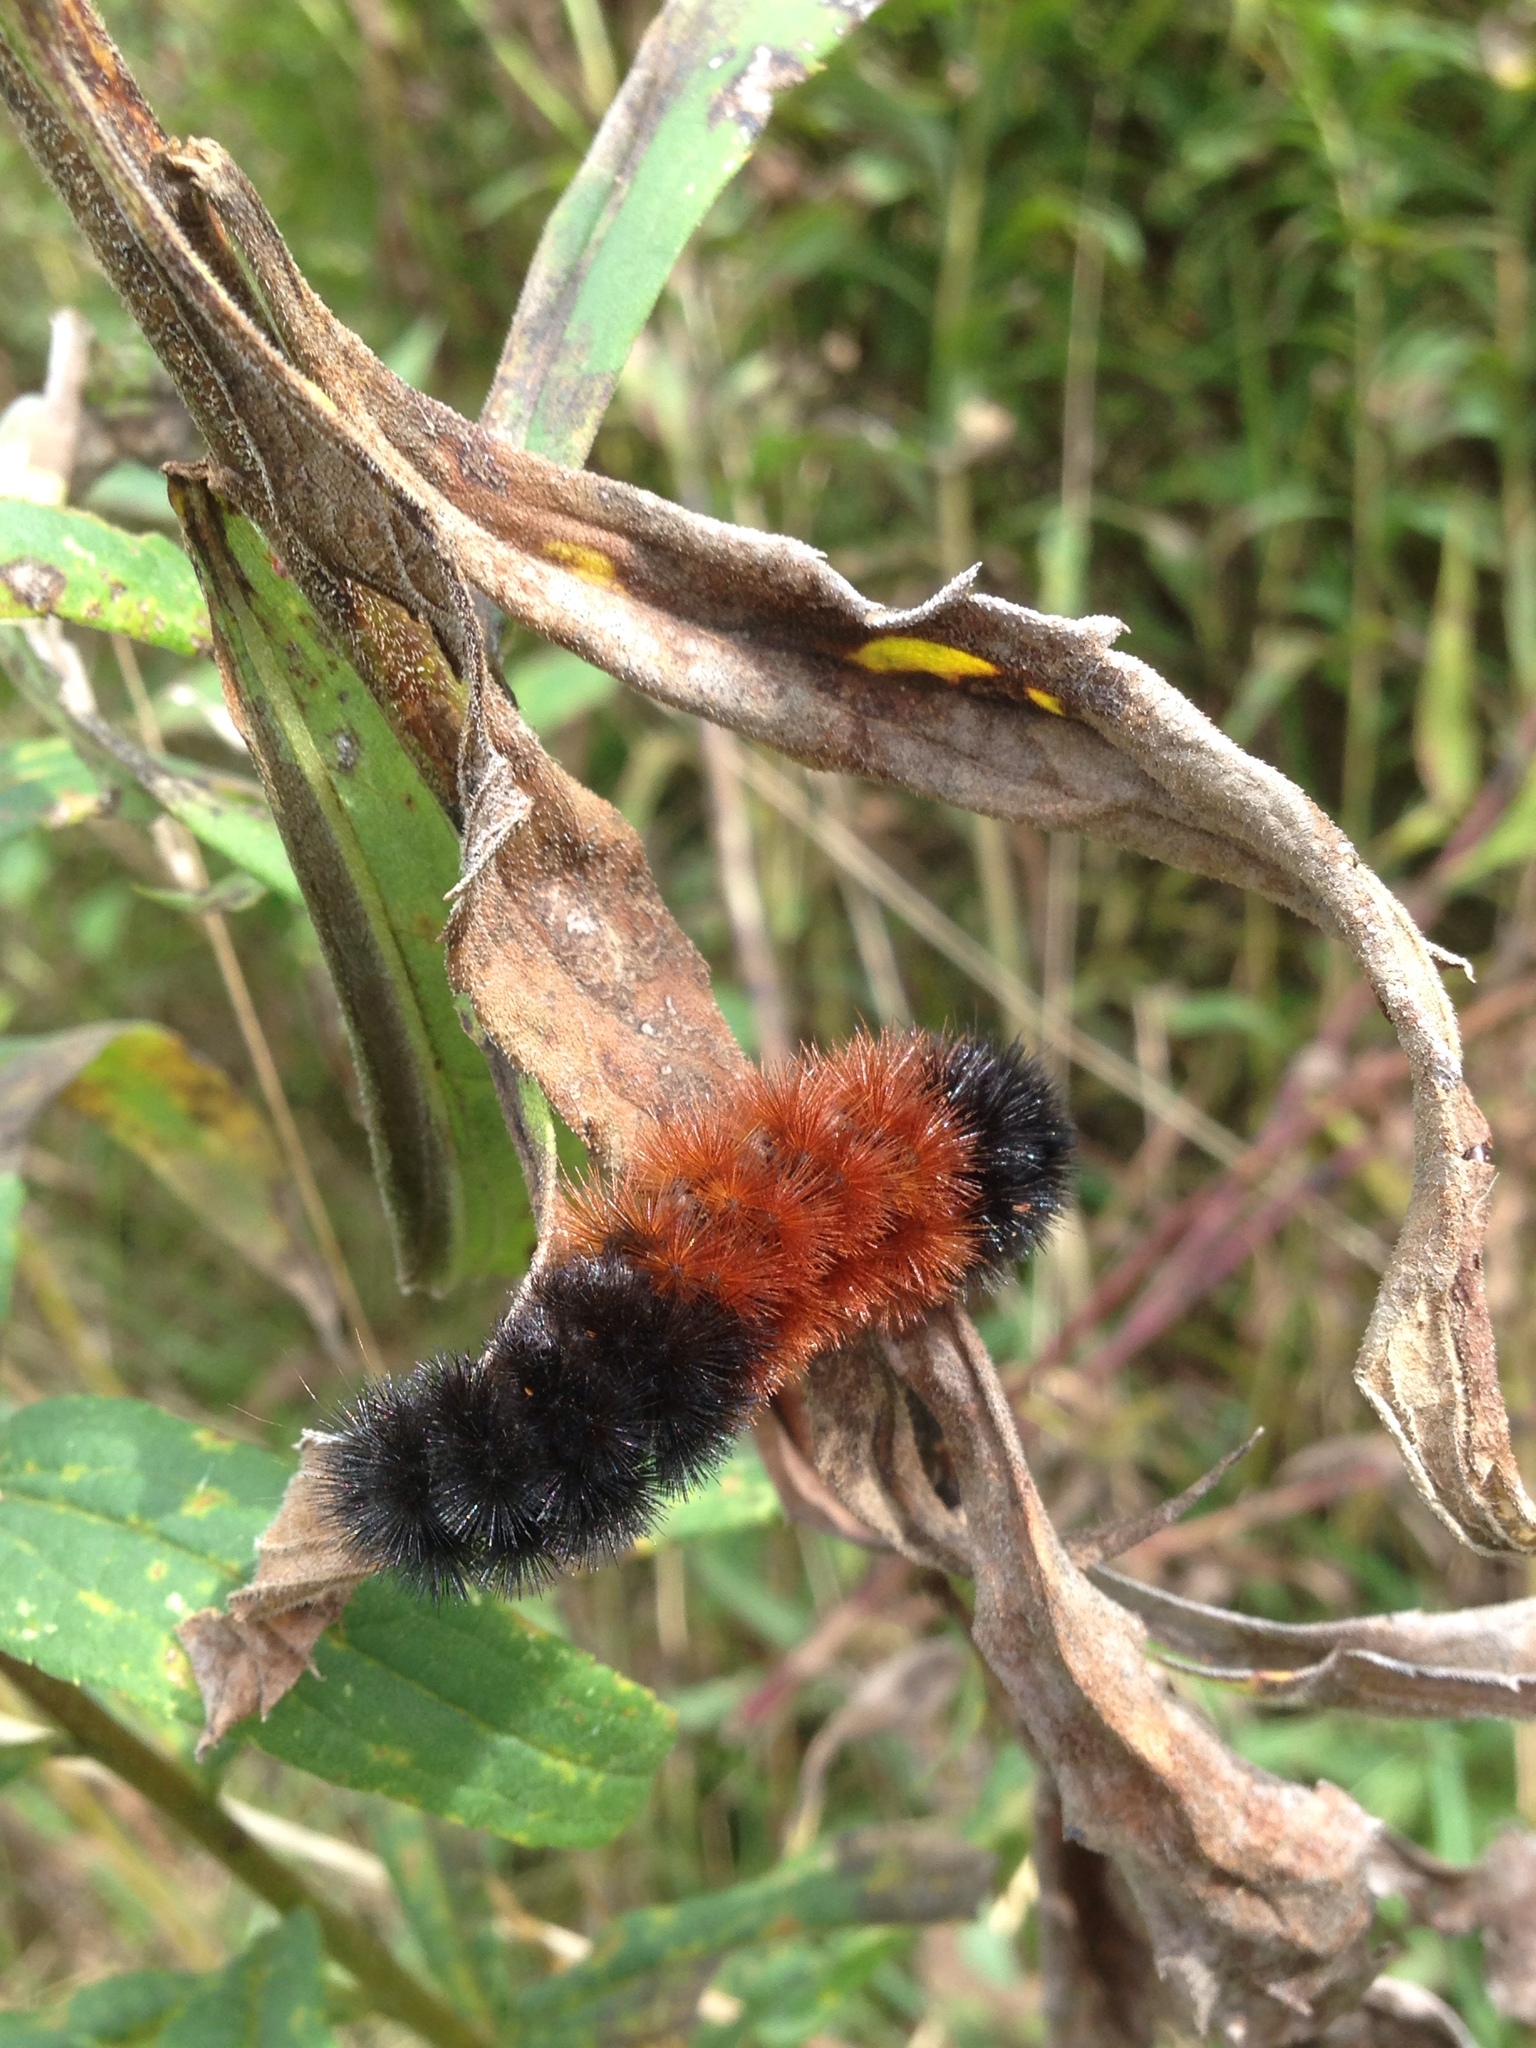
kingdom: Animalia
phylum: Arthropoda
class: Insecta
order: Lepidoptera
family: Erebidae
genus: Pyrrharctia
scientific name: Pyrrharctia isabella
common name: Isabella tiger moth
